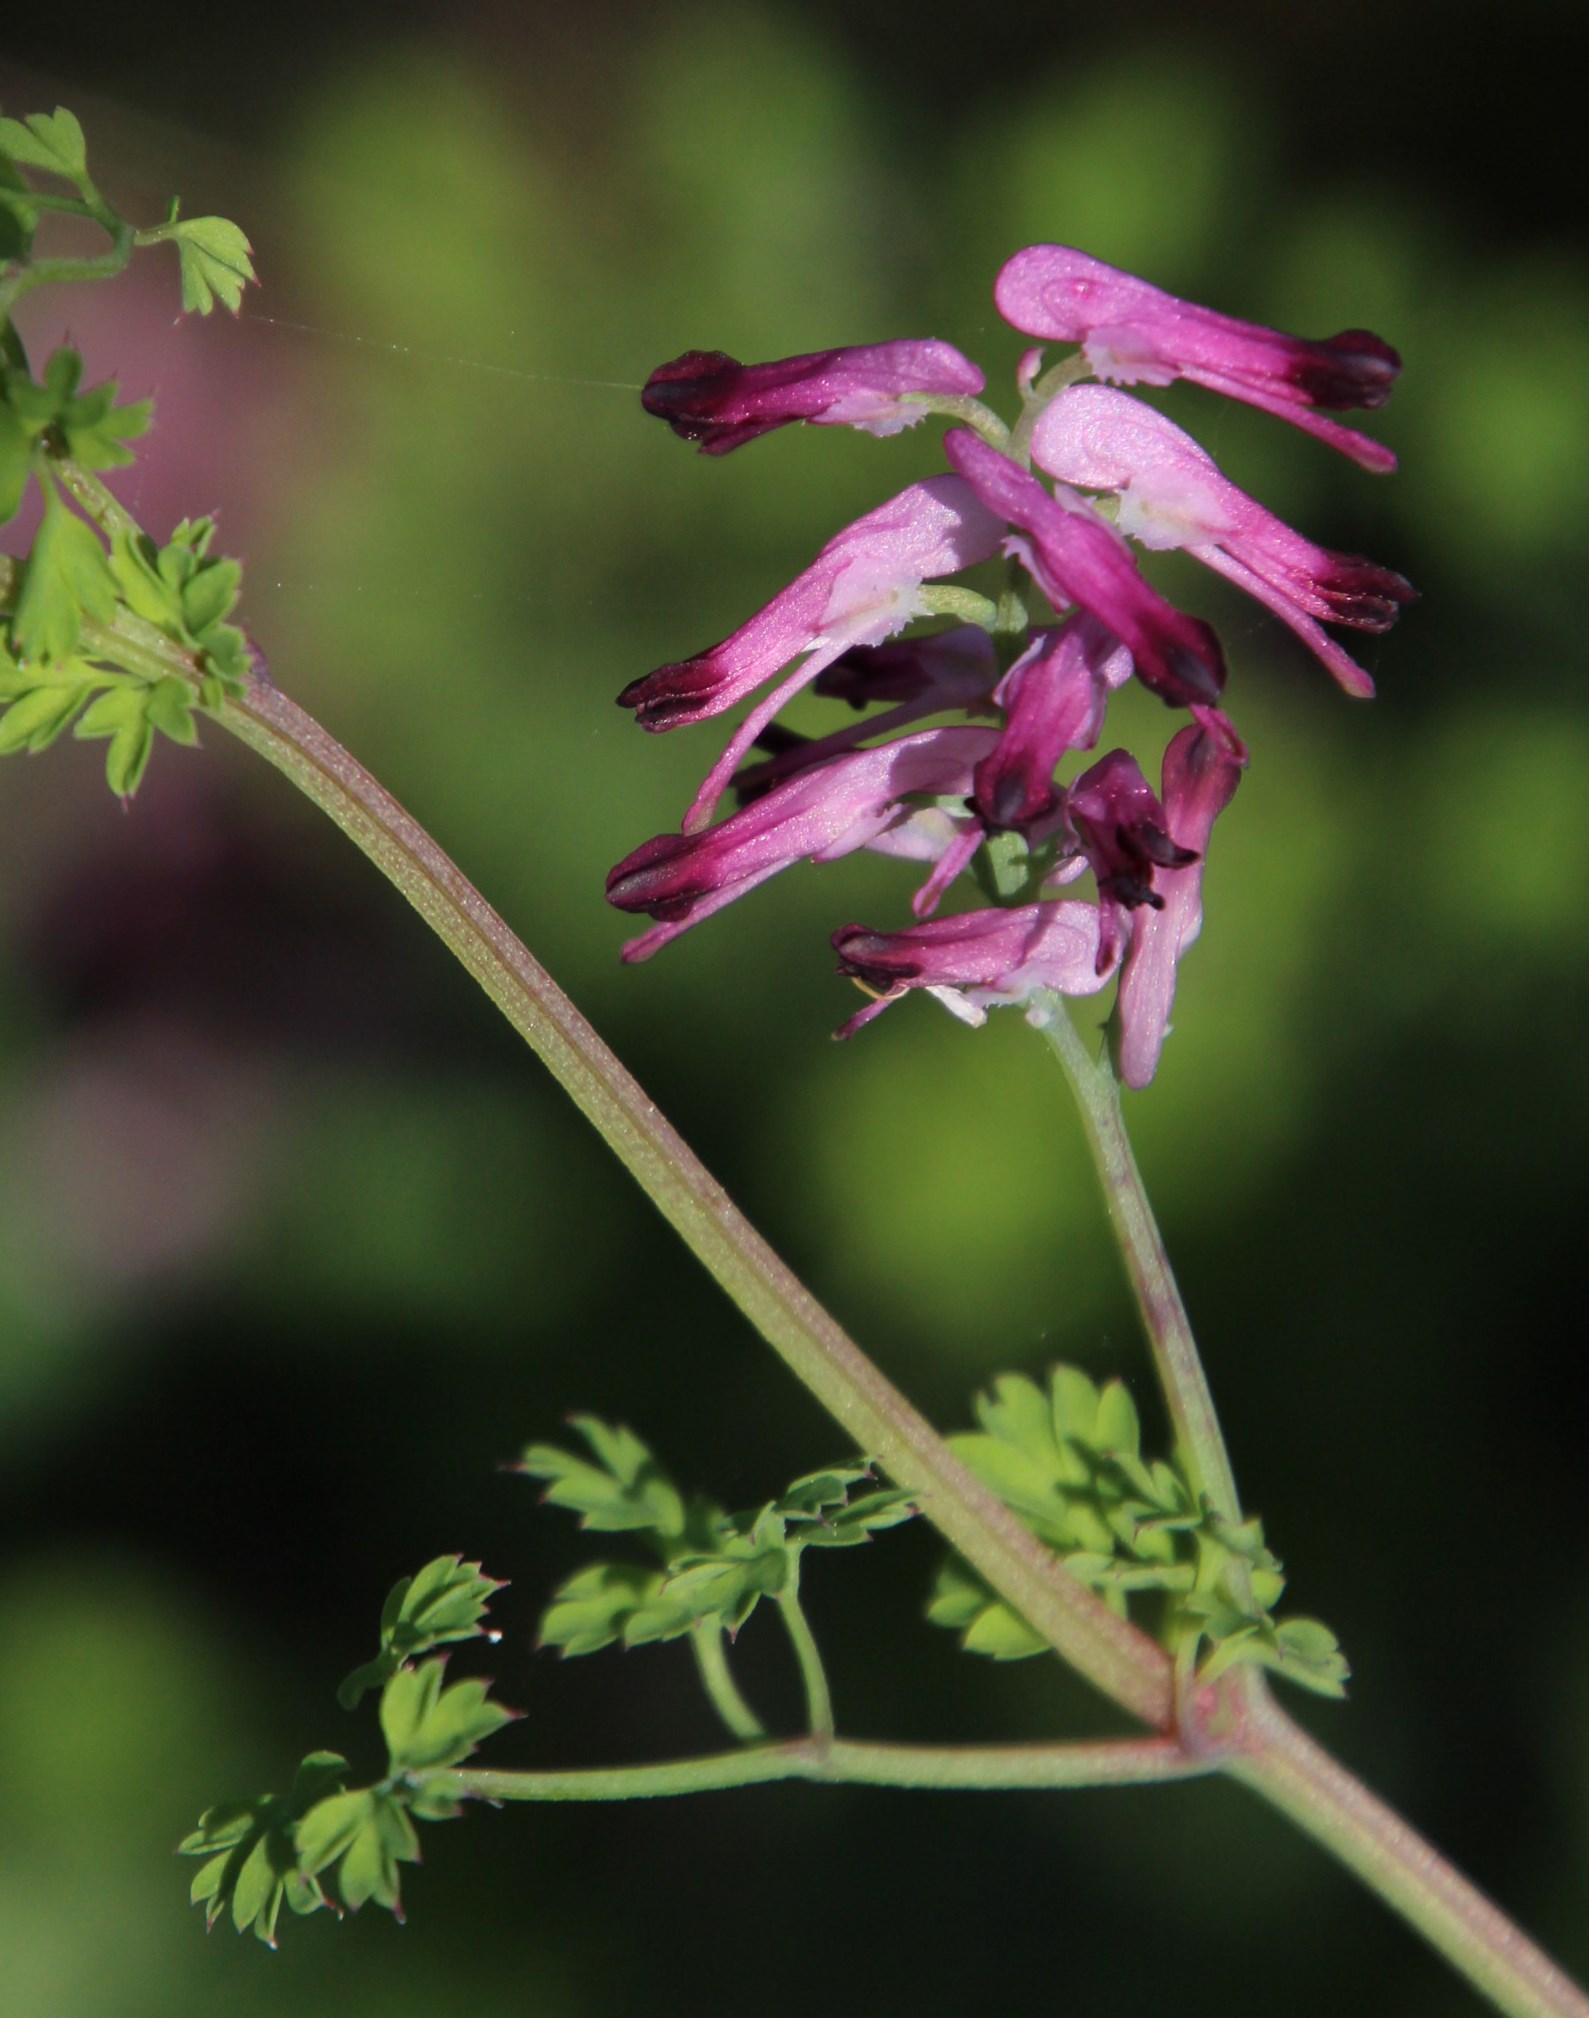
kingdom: Plantae
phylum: Tracheophyta
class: Magnoliopsida
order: Ranunculales
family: Papaveraceae
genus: Fumaria
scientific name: Fumaria muralis
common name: Common ramping-fumitory
